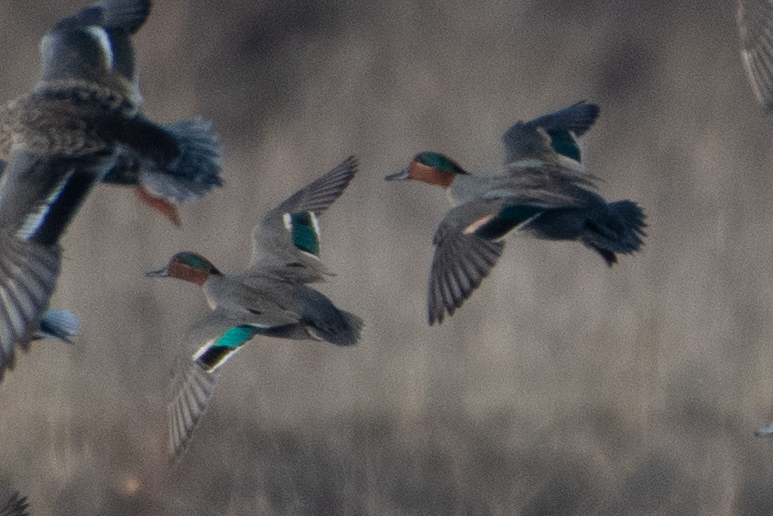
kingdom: Animalia
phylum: Chordata
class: Aves
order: Anseriformes
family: Anatidae
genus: Anas
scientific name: Anas crecca
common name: Eurasian teal
